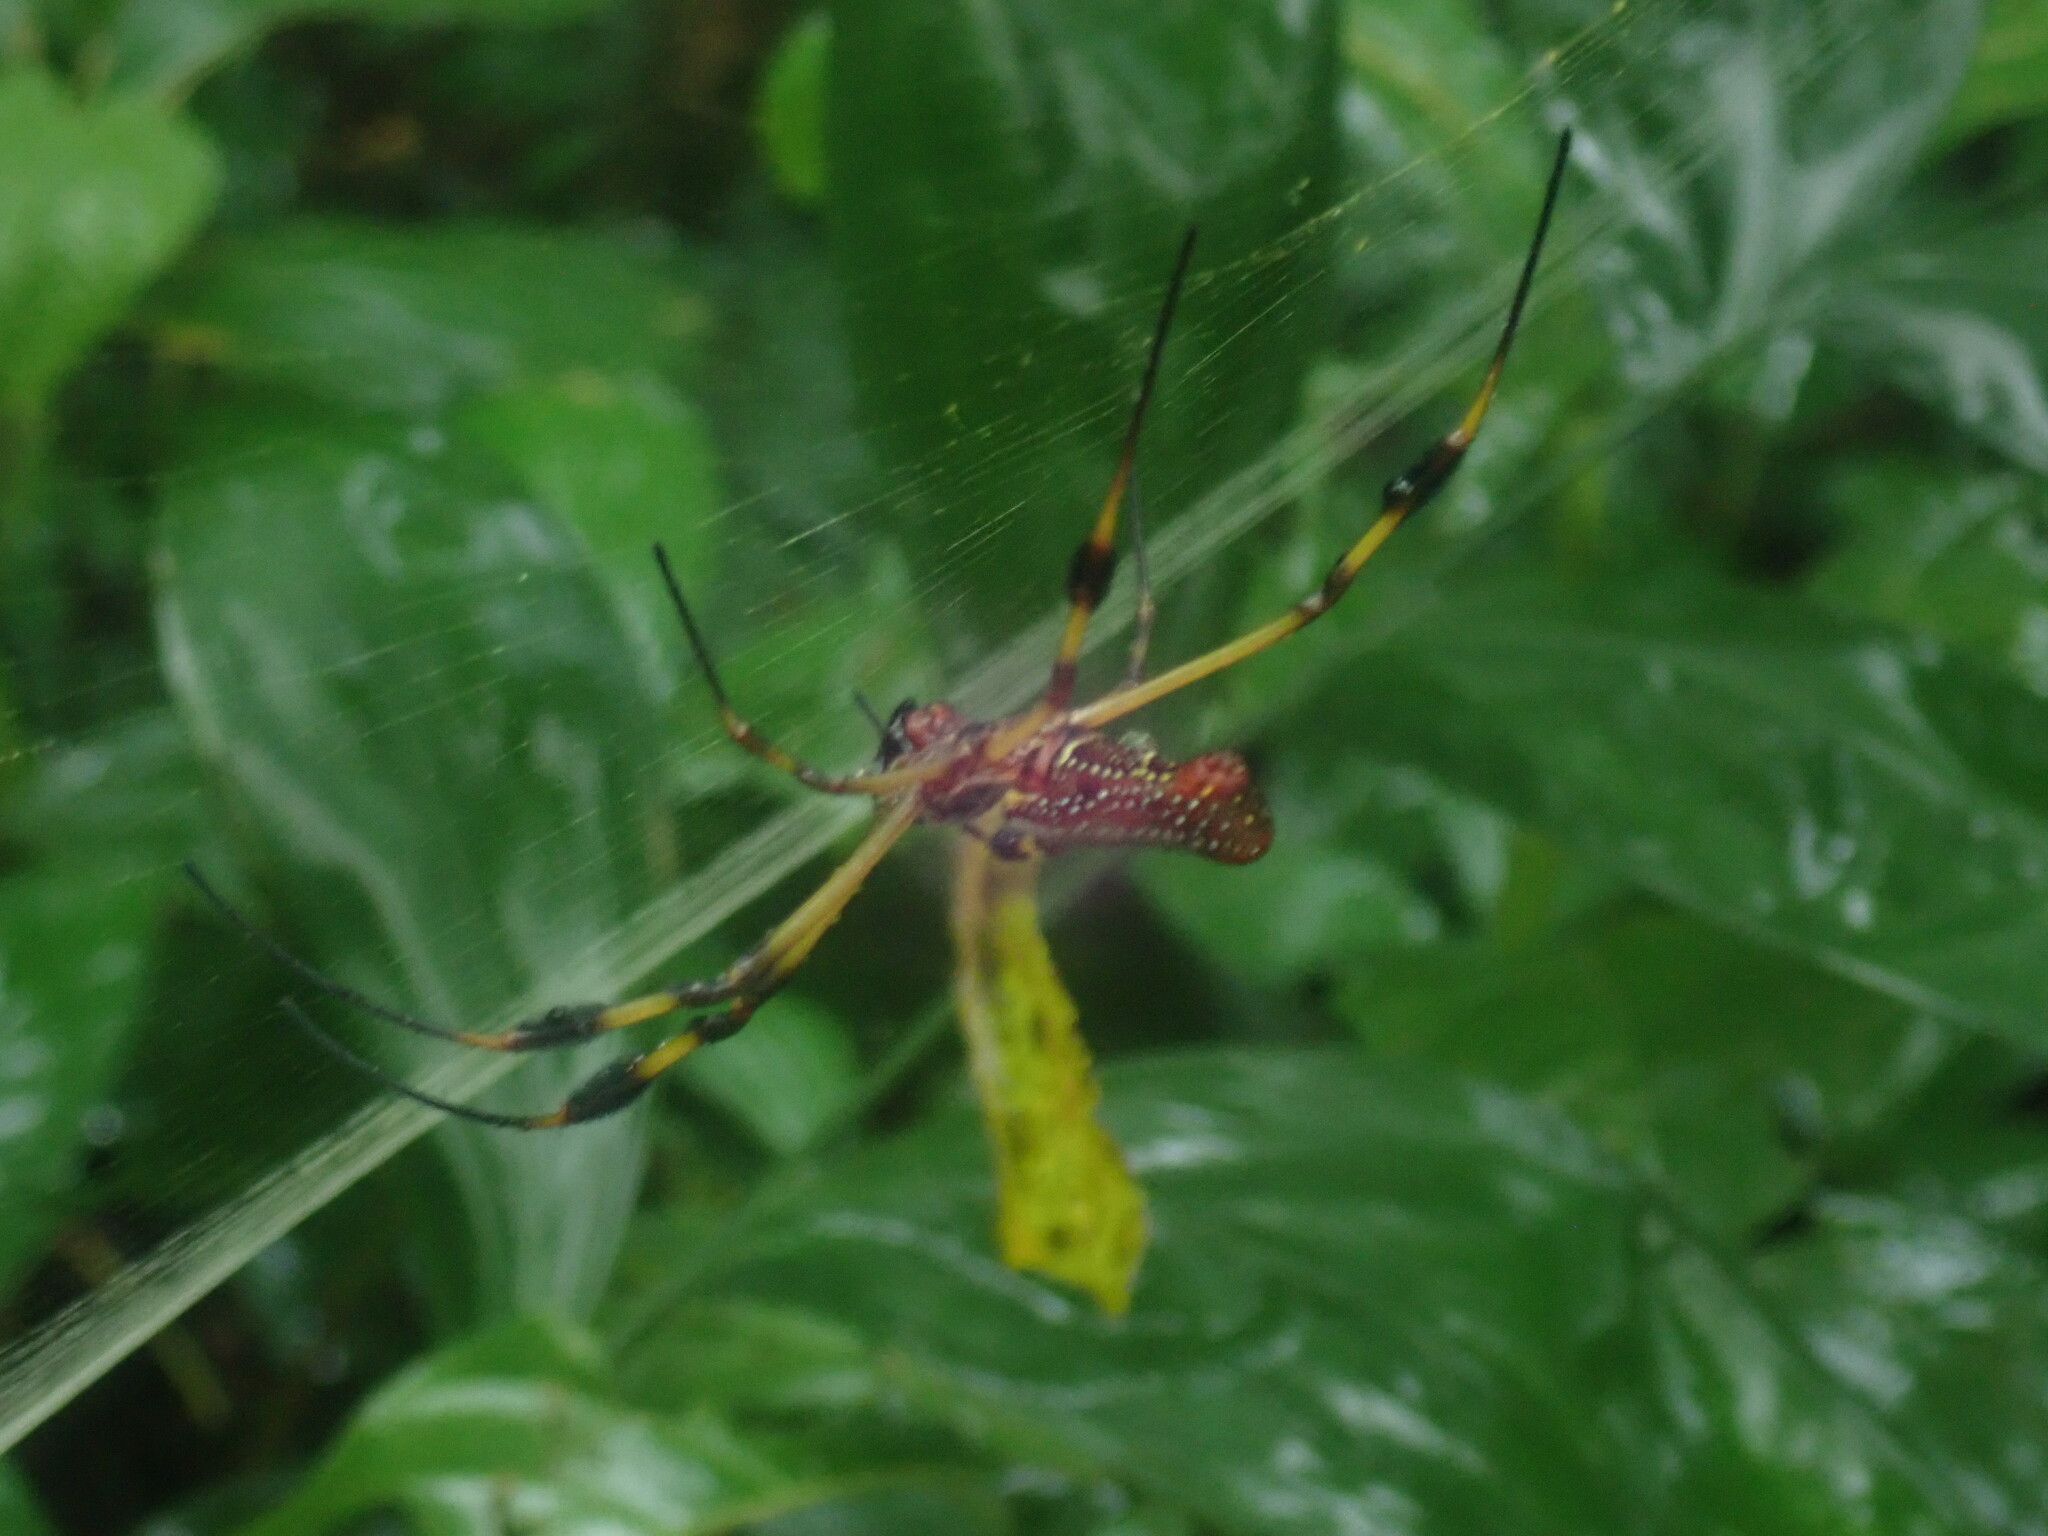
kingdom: Animalia
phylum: Arthropoda
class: Arachnida
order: Araneae
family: Araneidae
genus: Trichonephila
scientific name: Trichonephila clavipes
